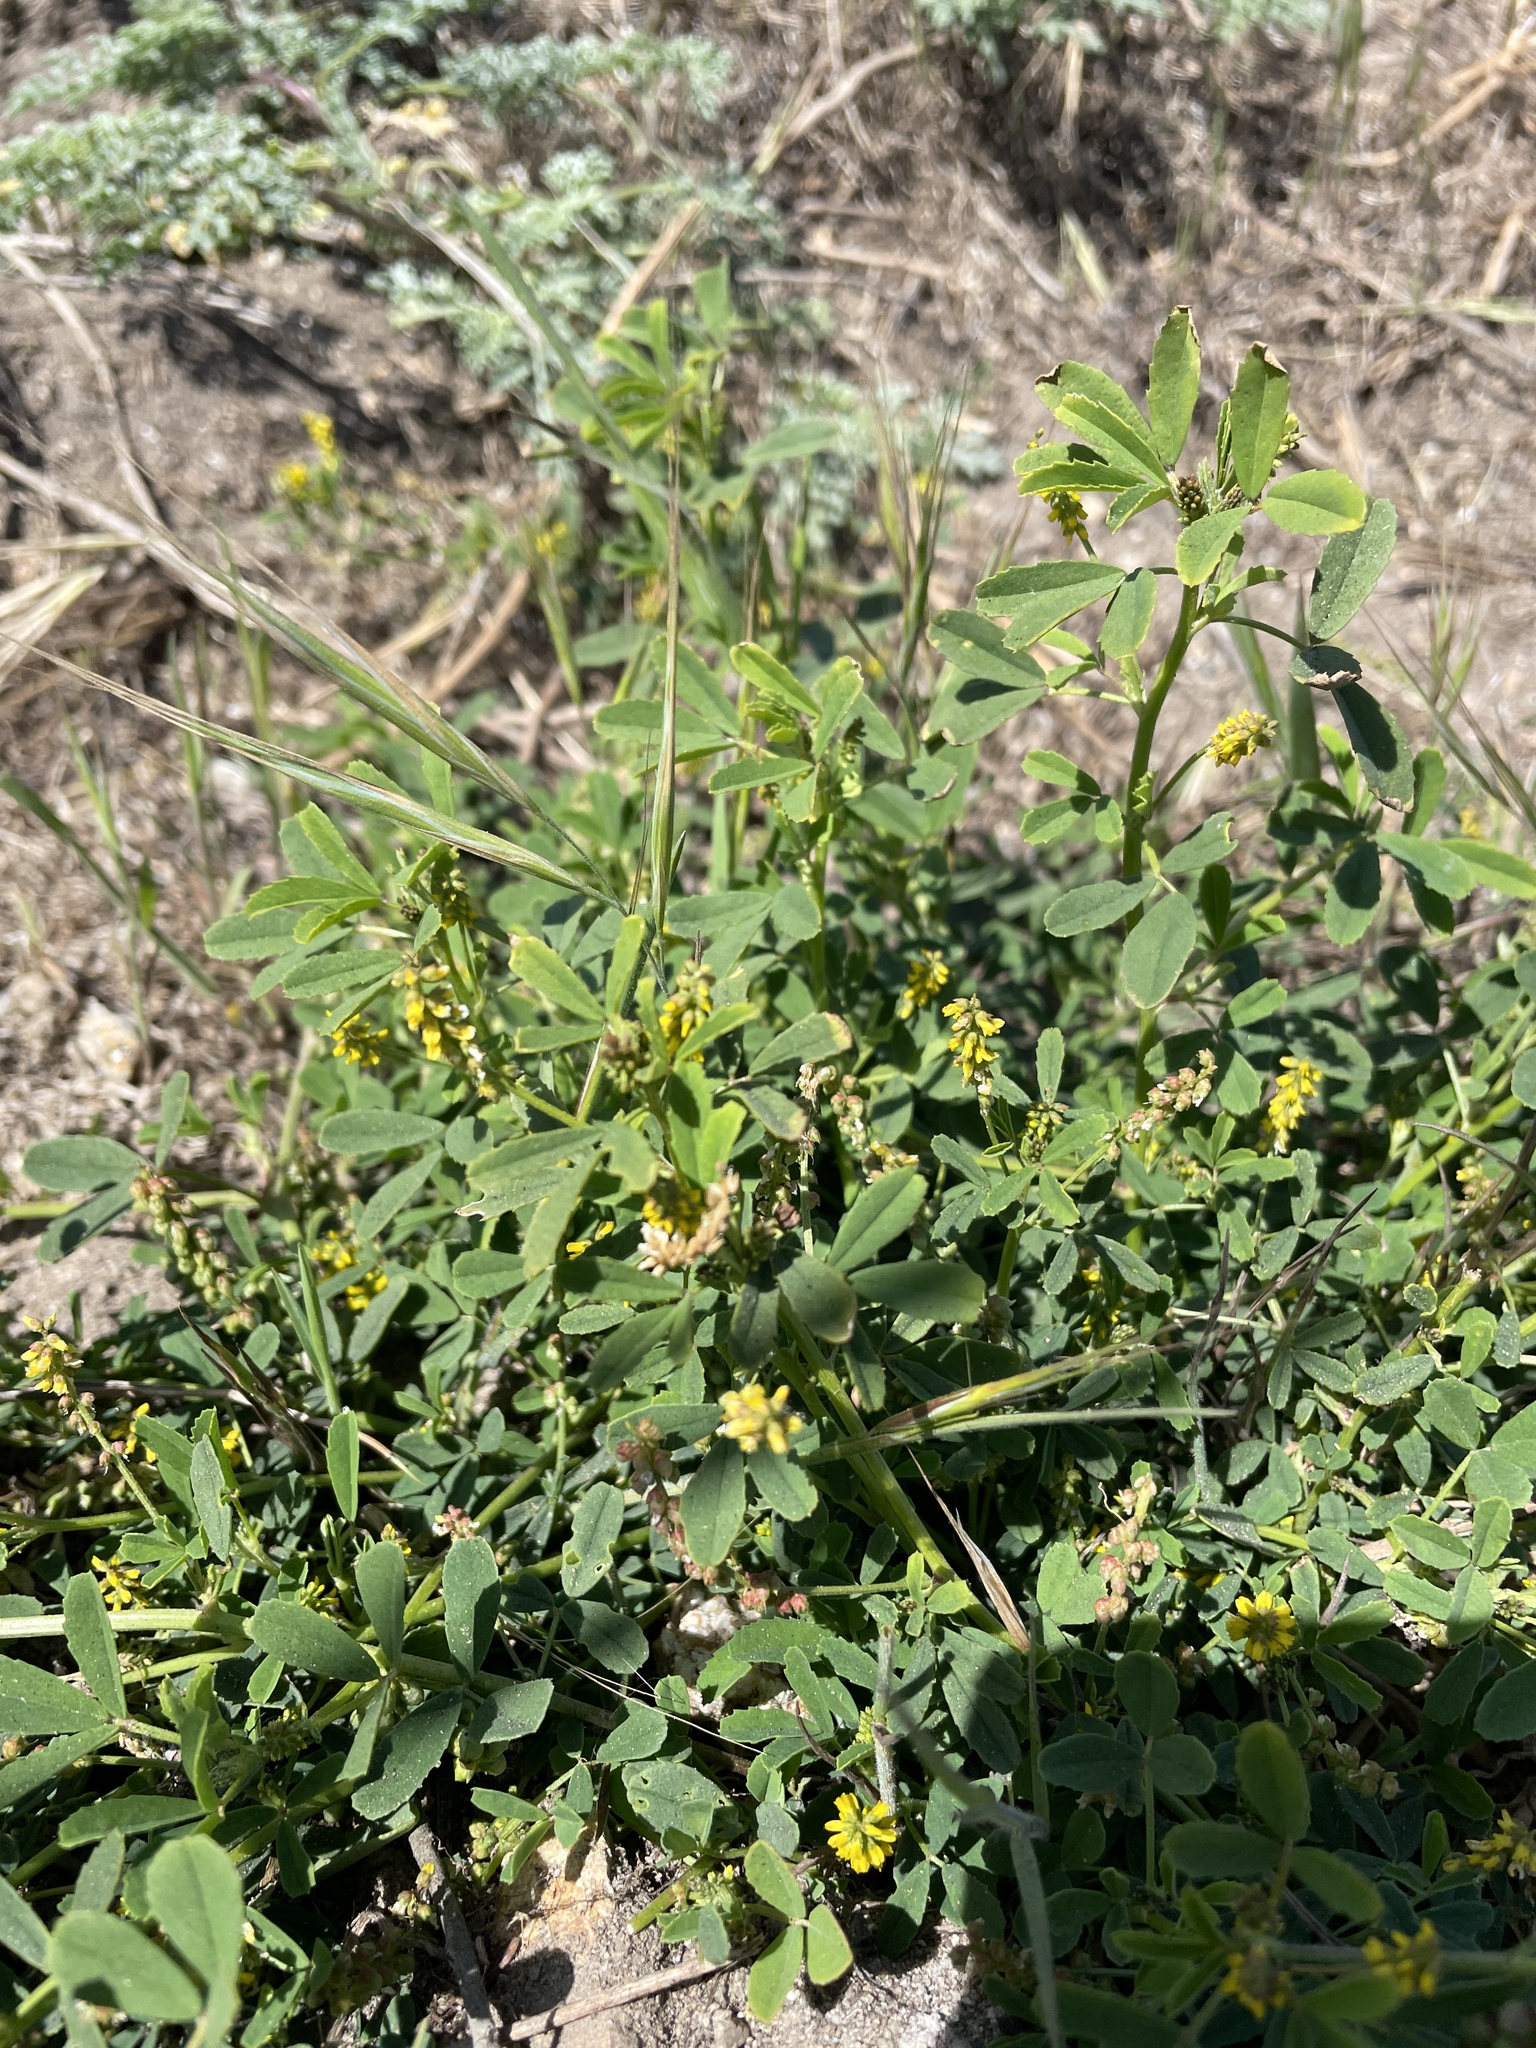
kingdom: Plantae
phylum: Tracheophyta
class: Magnoliopsida
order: Fabales
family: Fabaceae
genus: Melilotus
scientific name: Melilotus indicus
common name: Small melilot
